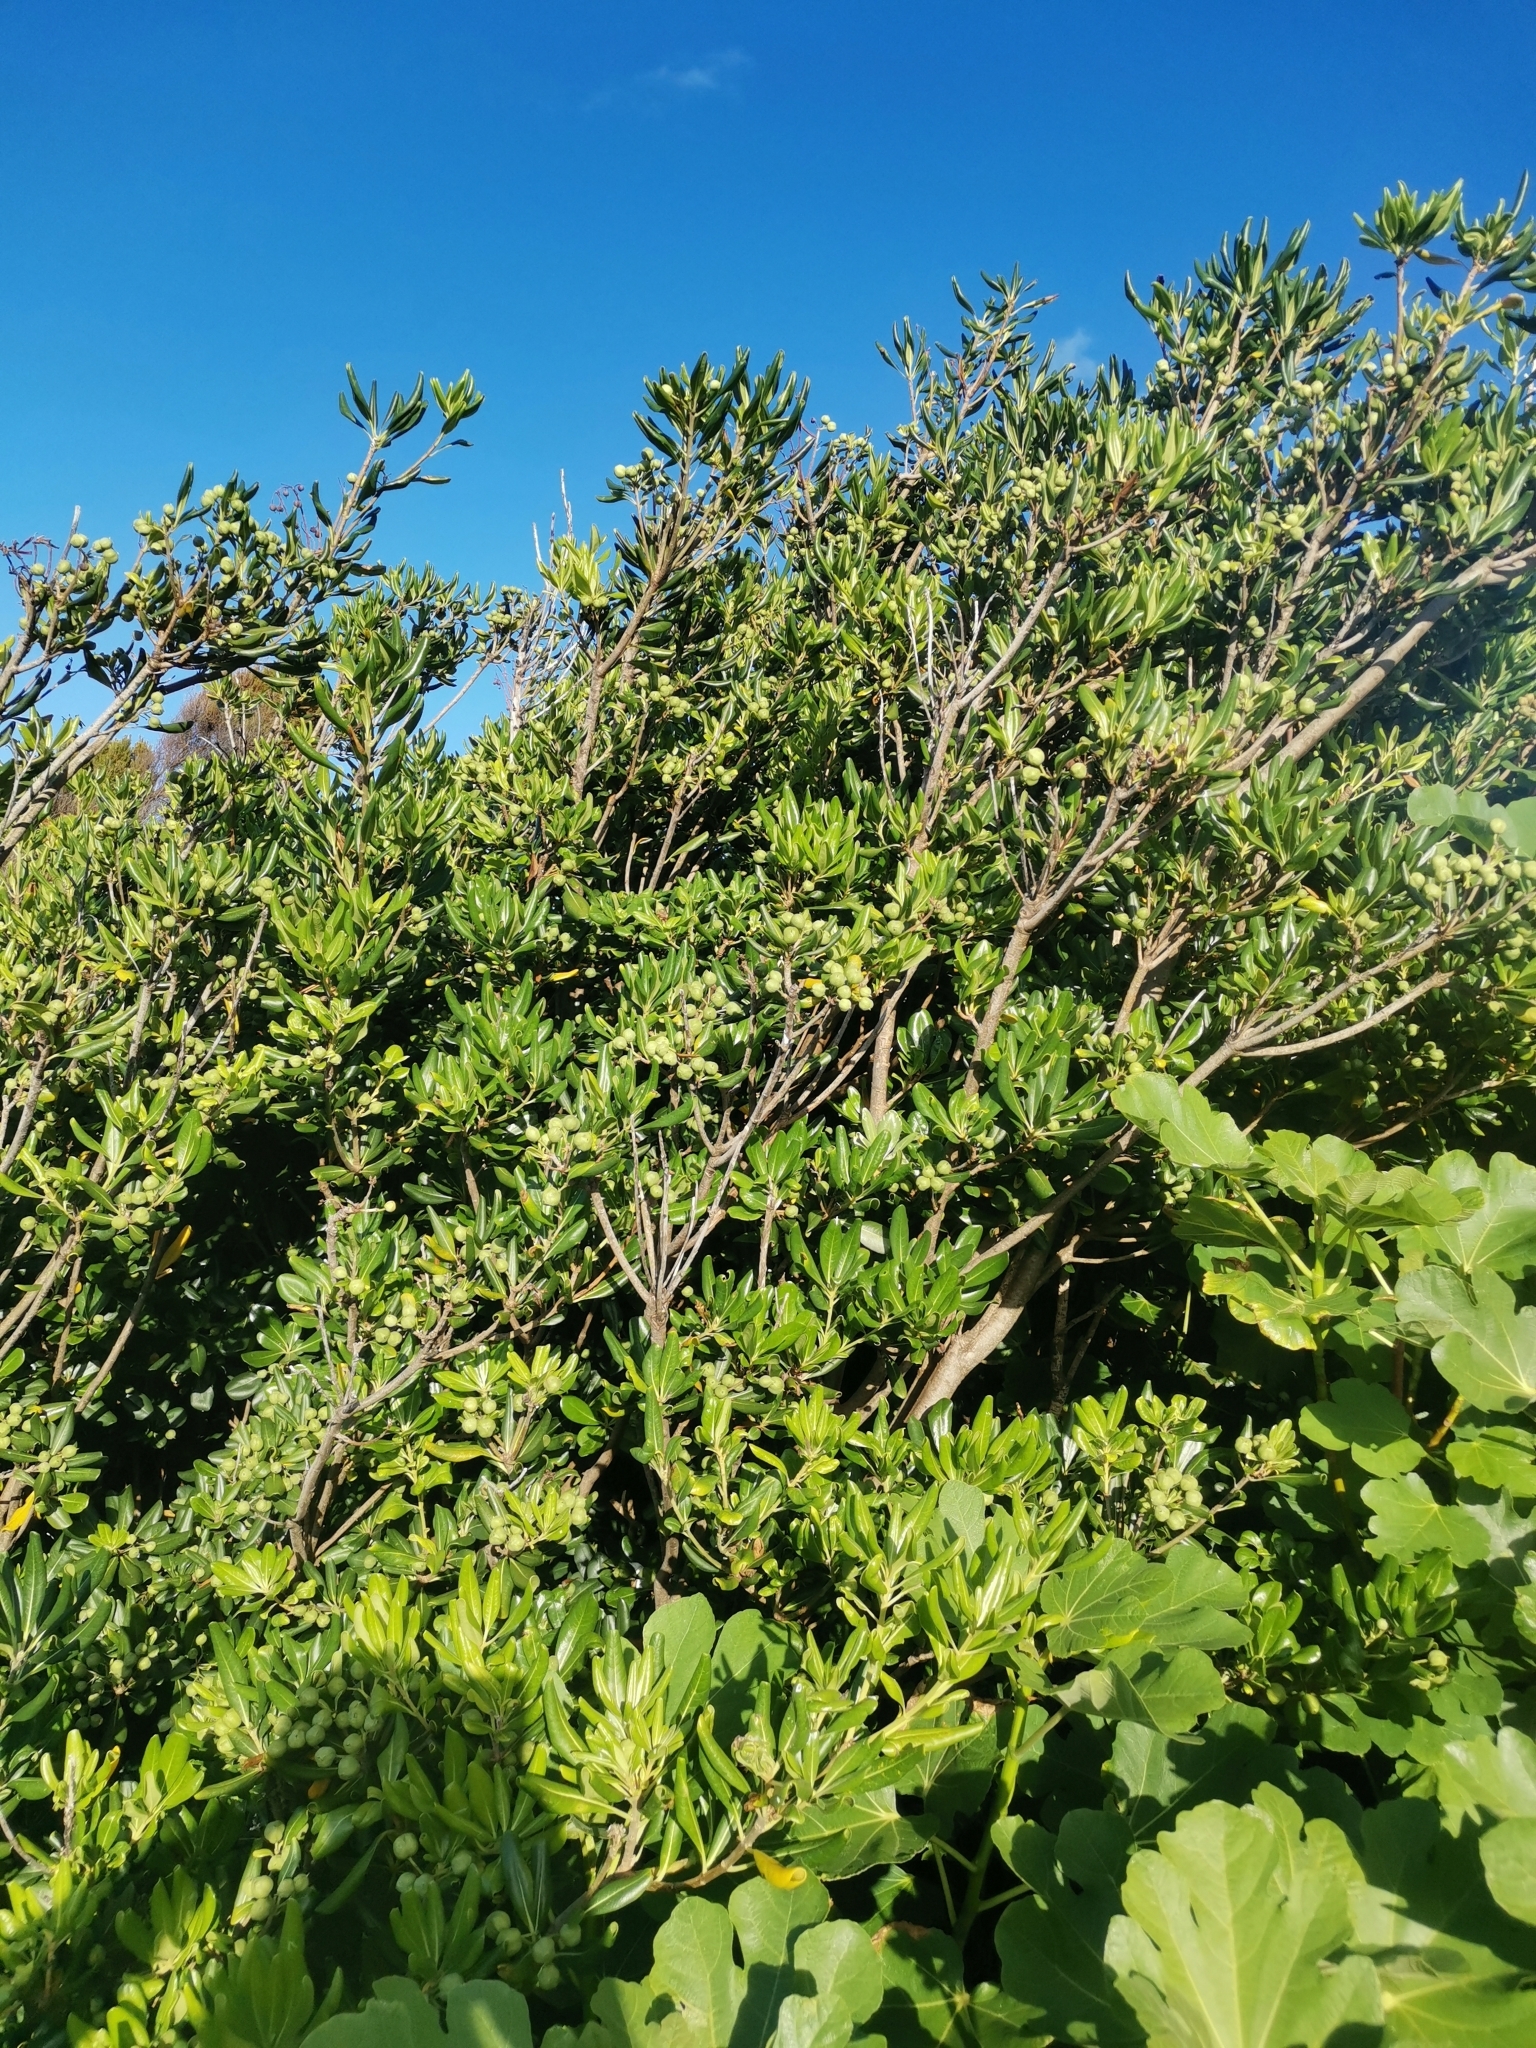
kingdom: Plantae
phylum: Tracheophyta
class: Magnoliopsida
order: Apiales
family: Pittosporaceae
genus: Pittosporum
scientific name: Pittosporum tobira
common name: Japanese cheesewood
